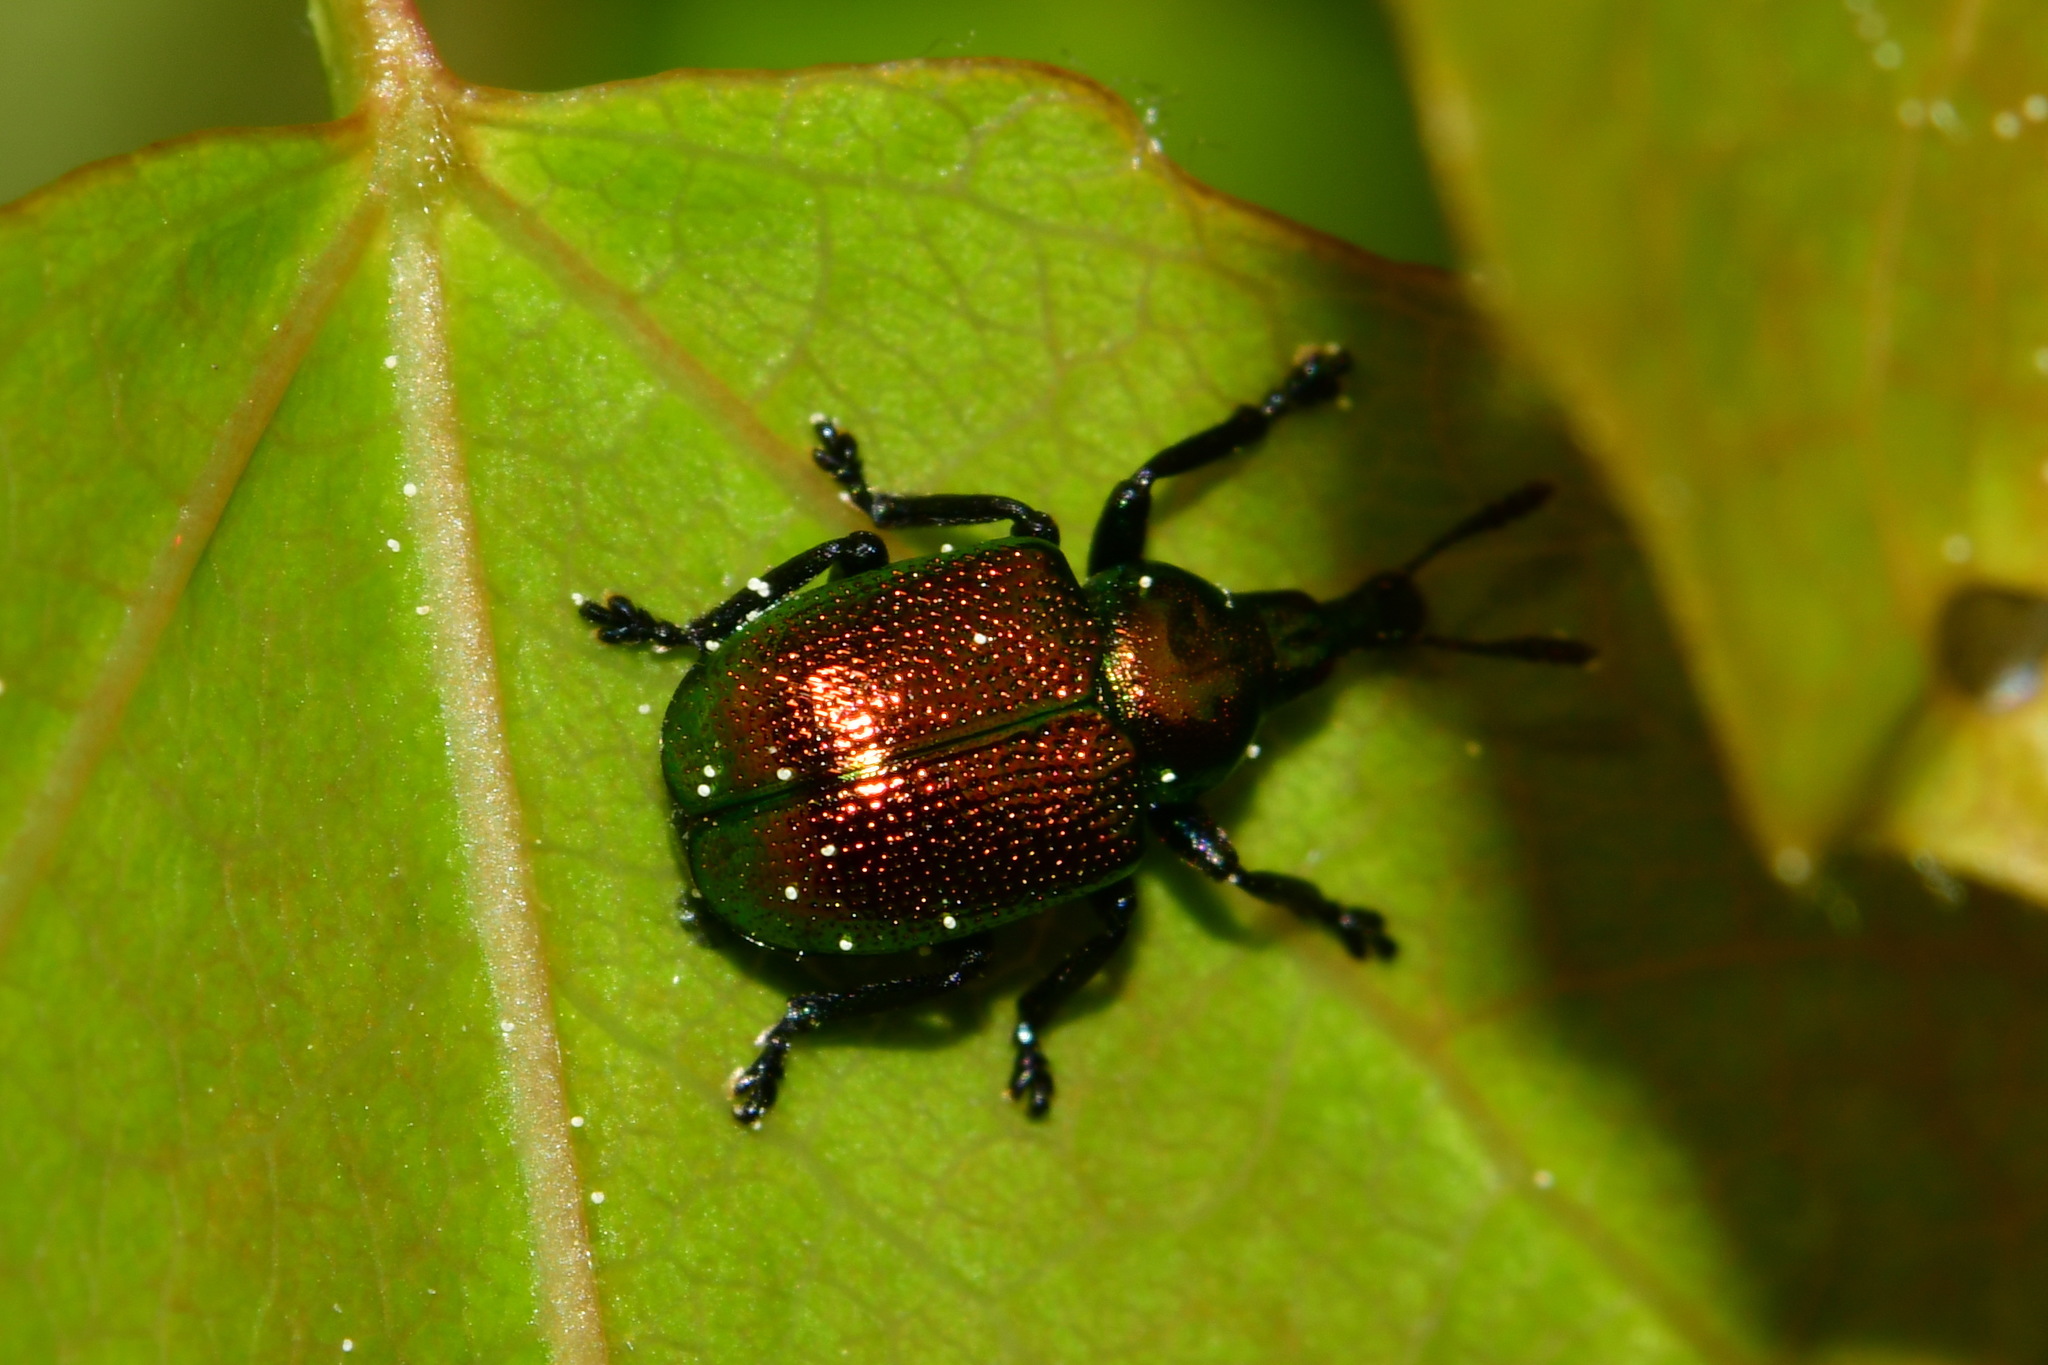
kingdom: Animalia
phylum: Arthropoda
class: Insecta
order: Coleoptera
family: Attelabidae
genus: Byctiscus
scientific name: Byctiscus populi
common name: Leaf-rolling weevil
